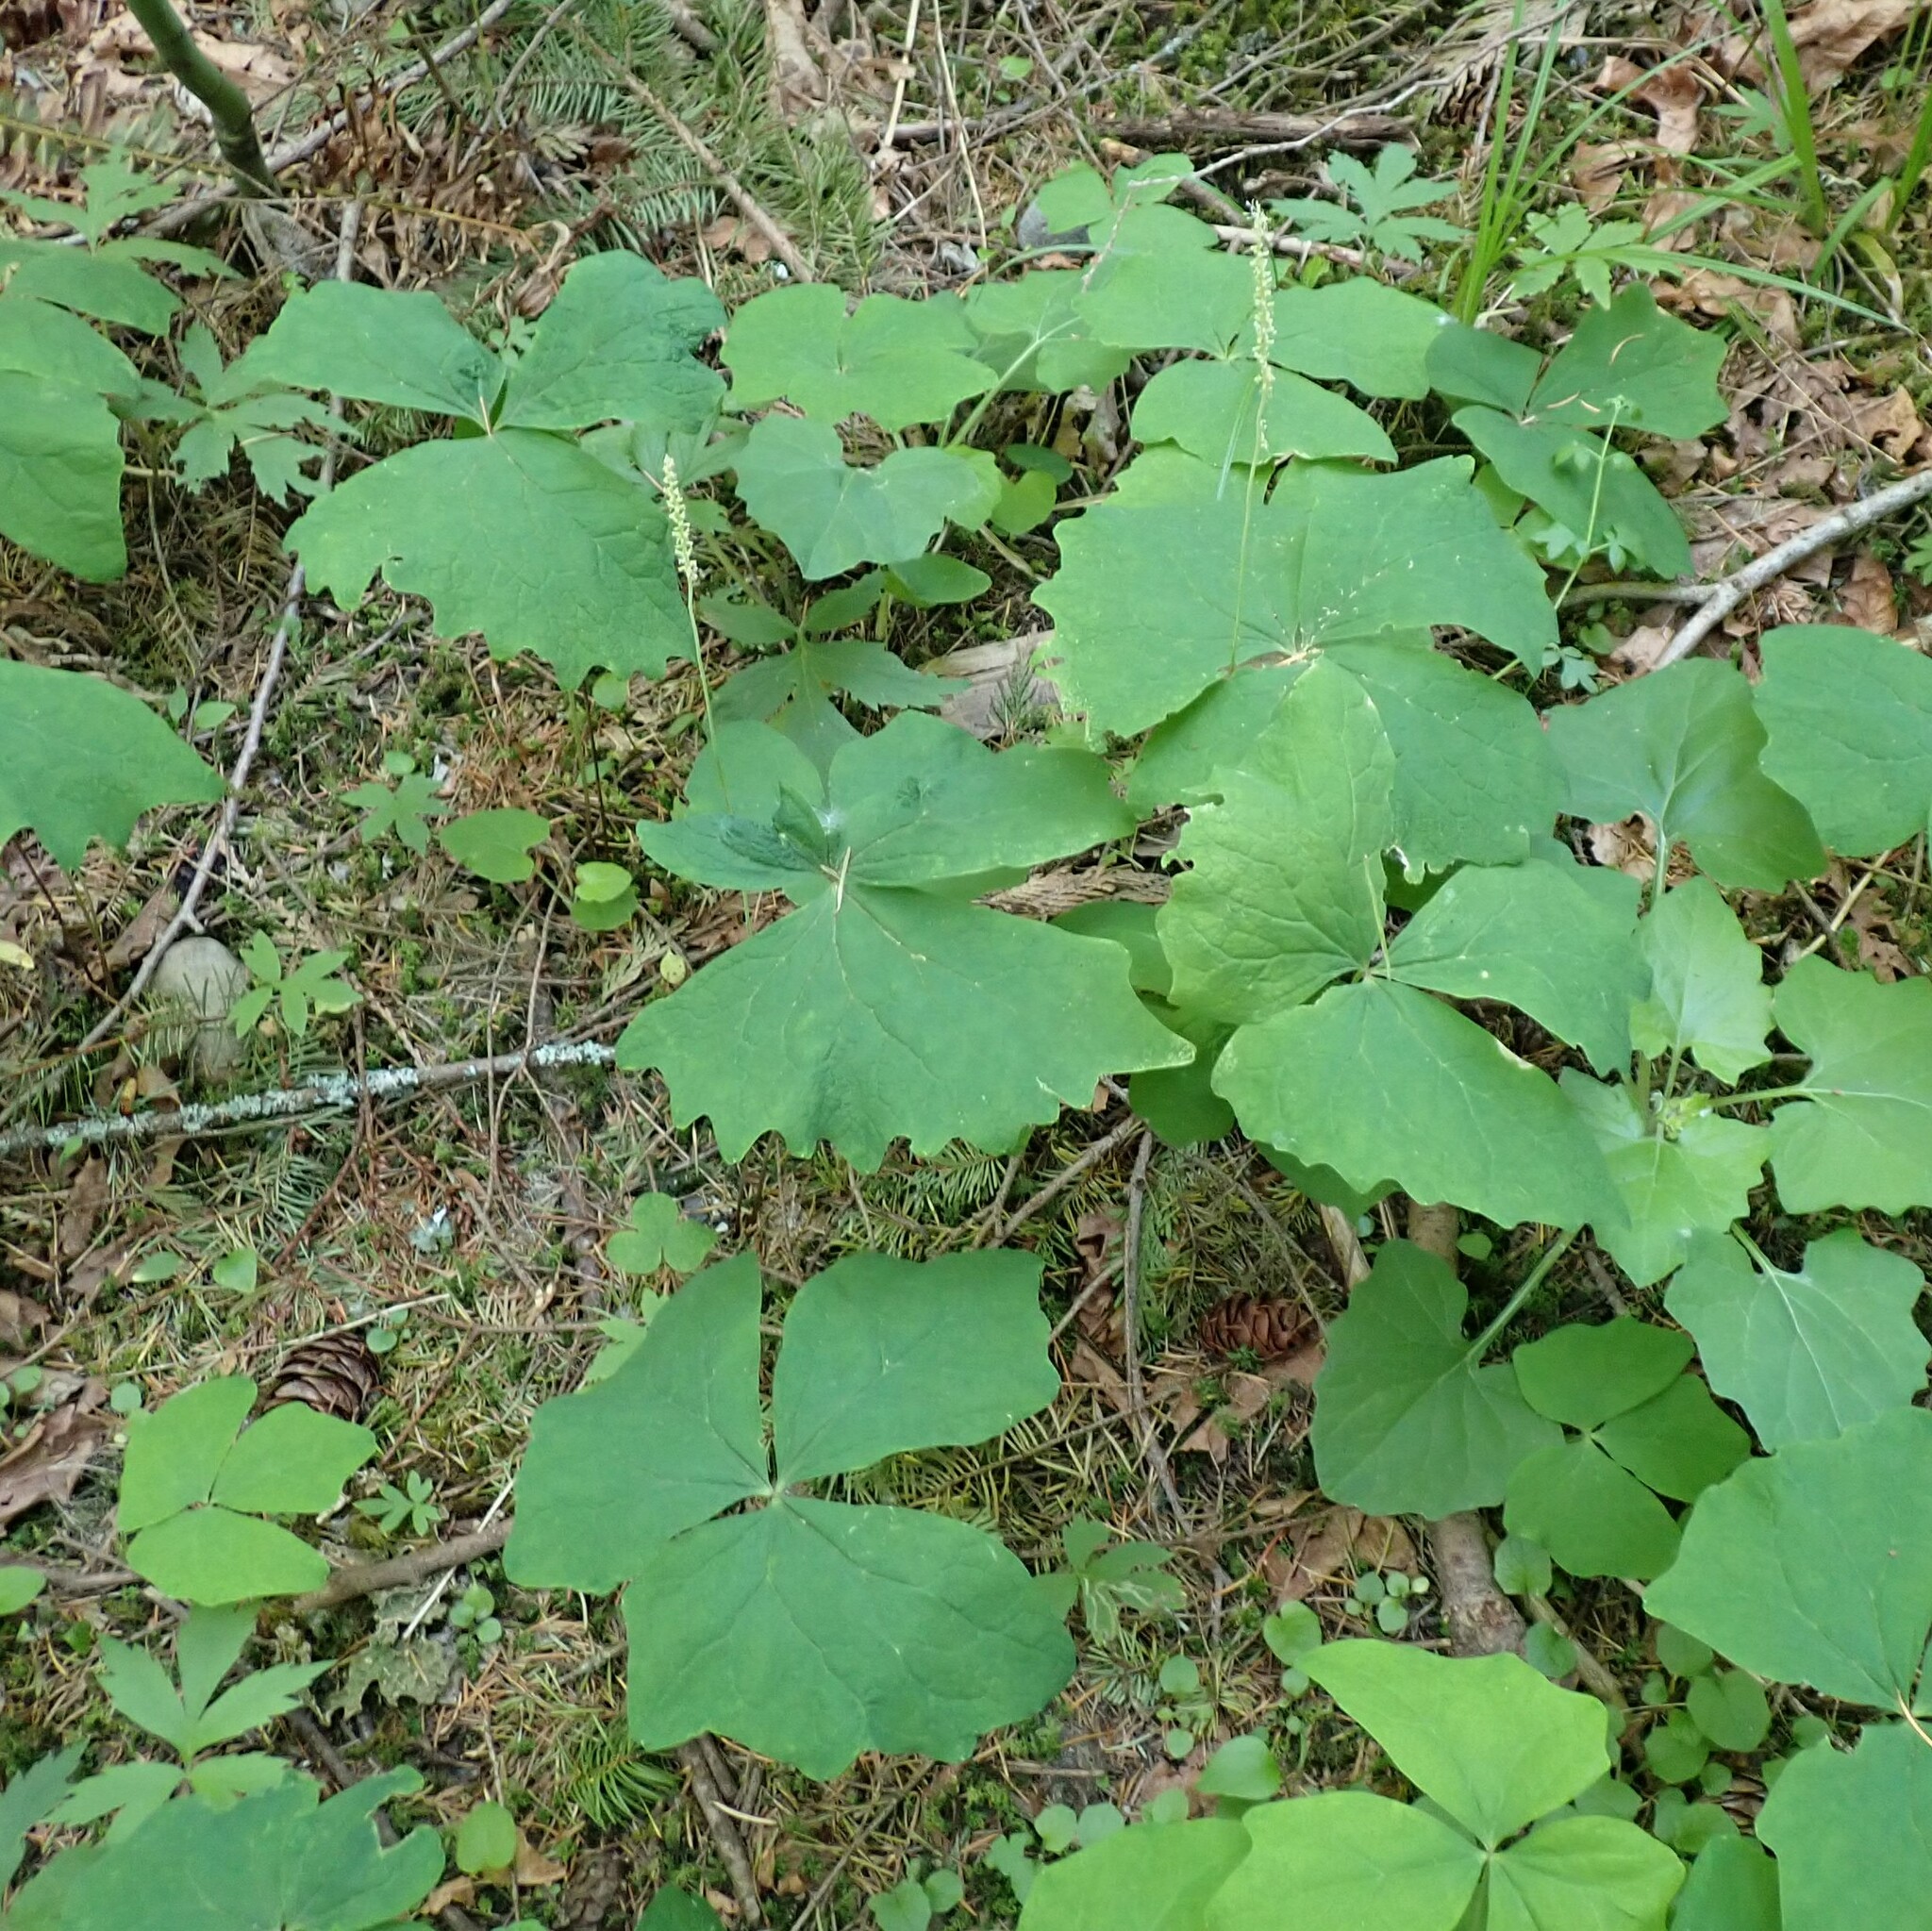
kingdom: Plantae
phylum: Tracheophyta
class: Magnoliopsida
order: Ranunculales
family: Berberidaceae
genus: Achlys
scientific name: Achlys triphylla
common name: Vanilla-leaf
